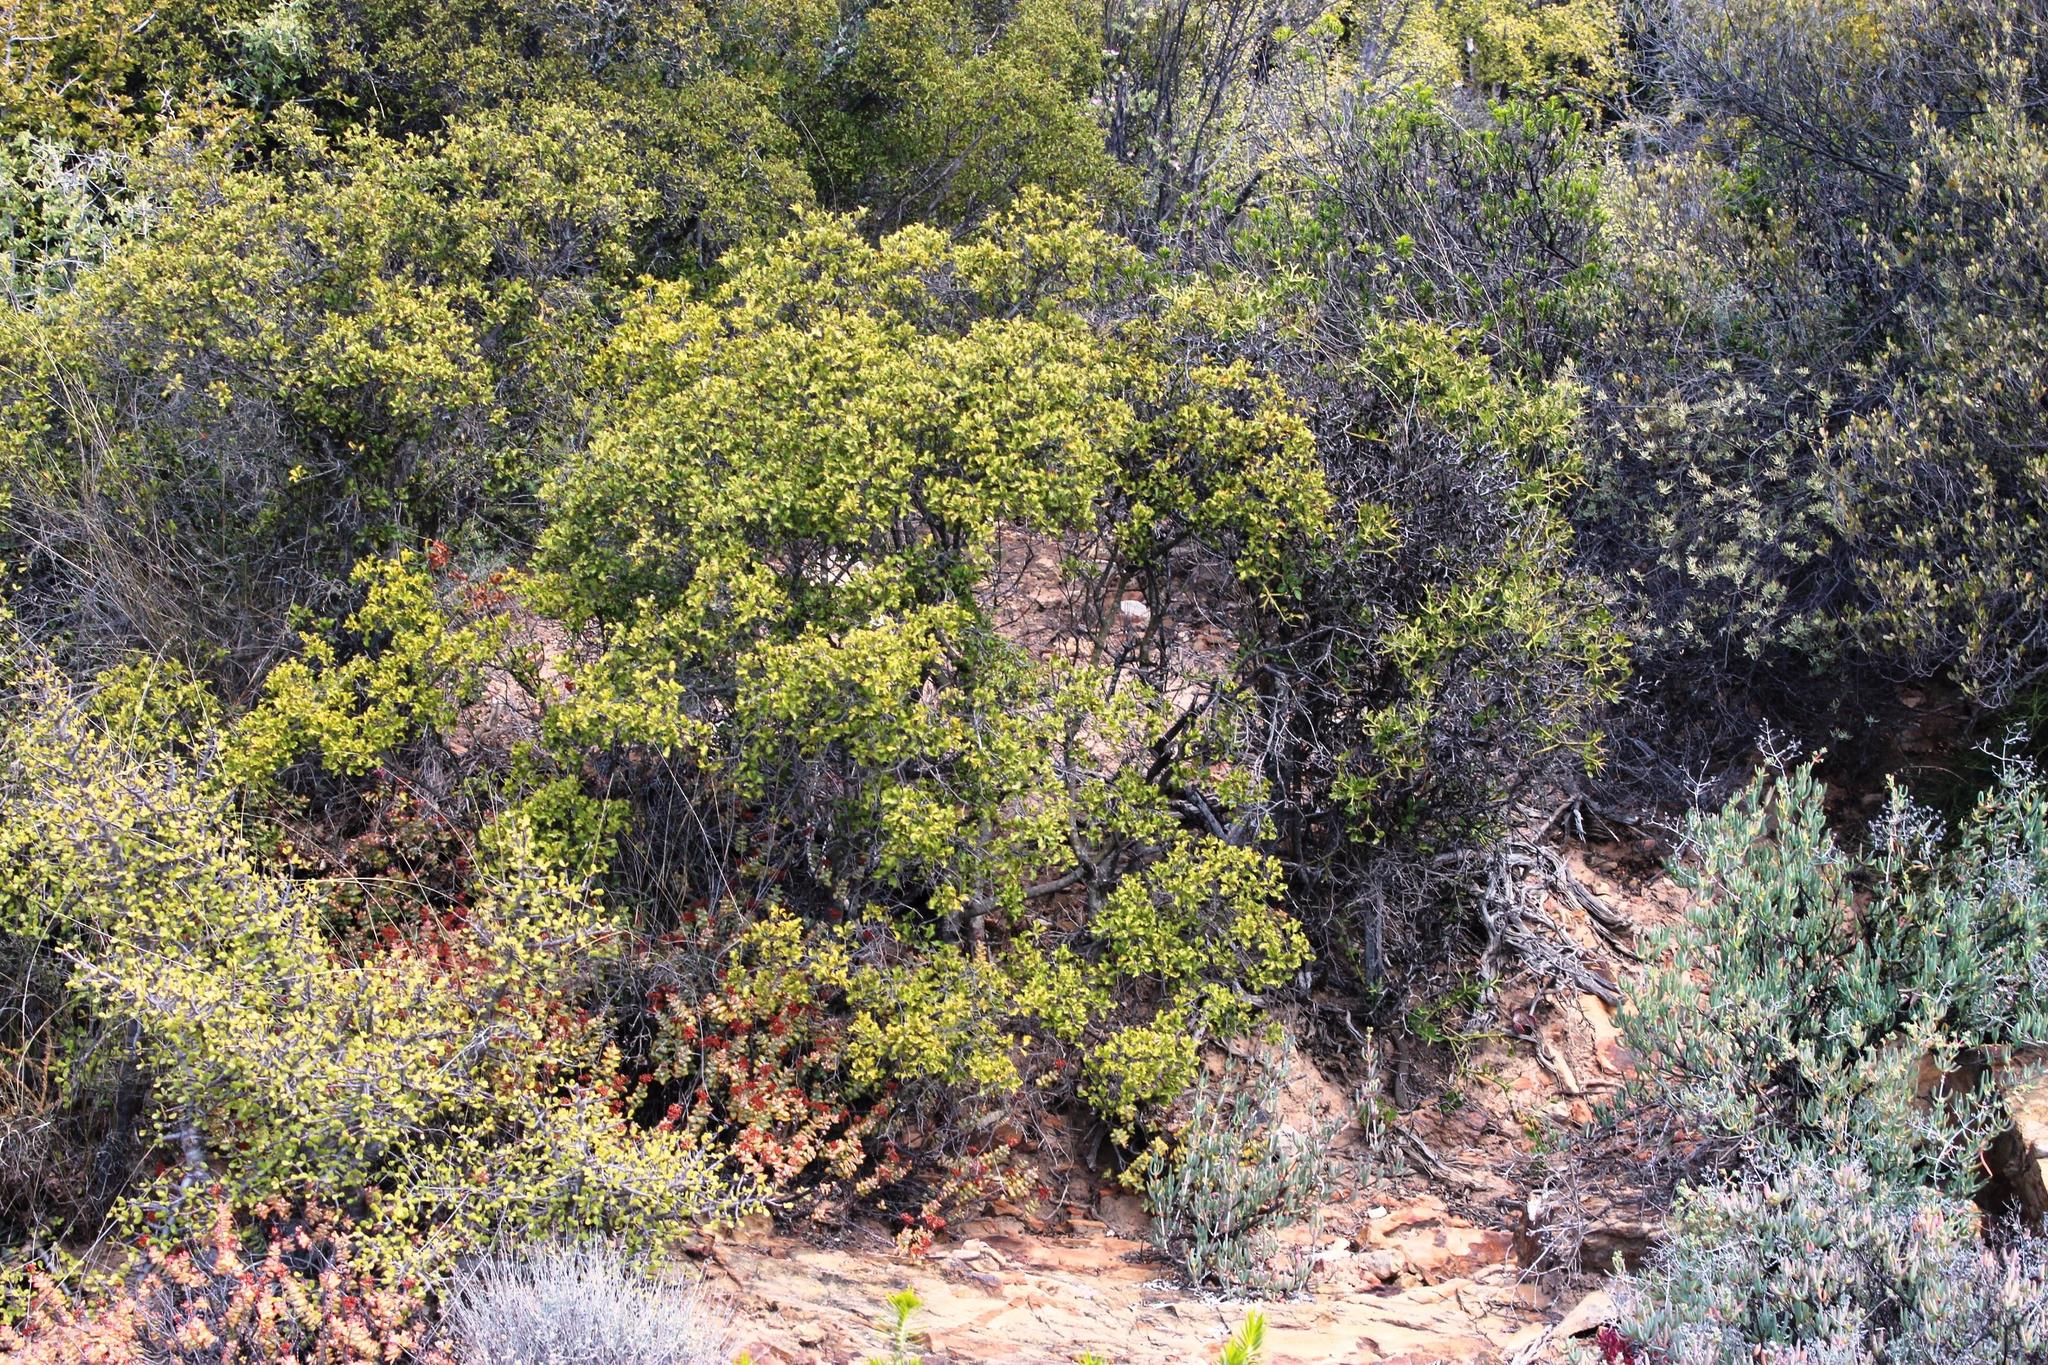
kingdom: Plantae
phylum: Tracheophyta
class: Magnoliopsida
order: Ericales
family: Ebenaceae
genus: Euclea
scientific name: Euclea undulata
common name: Small-leaved guarri
